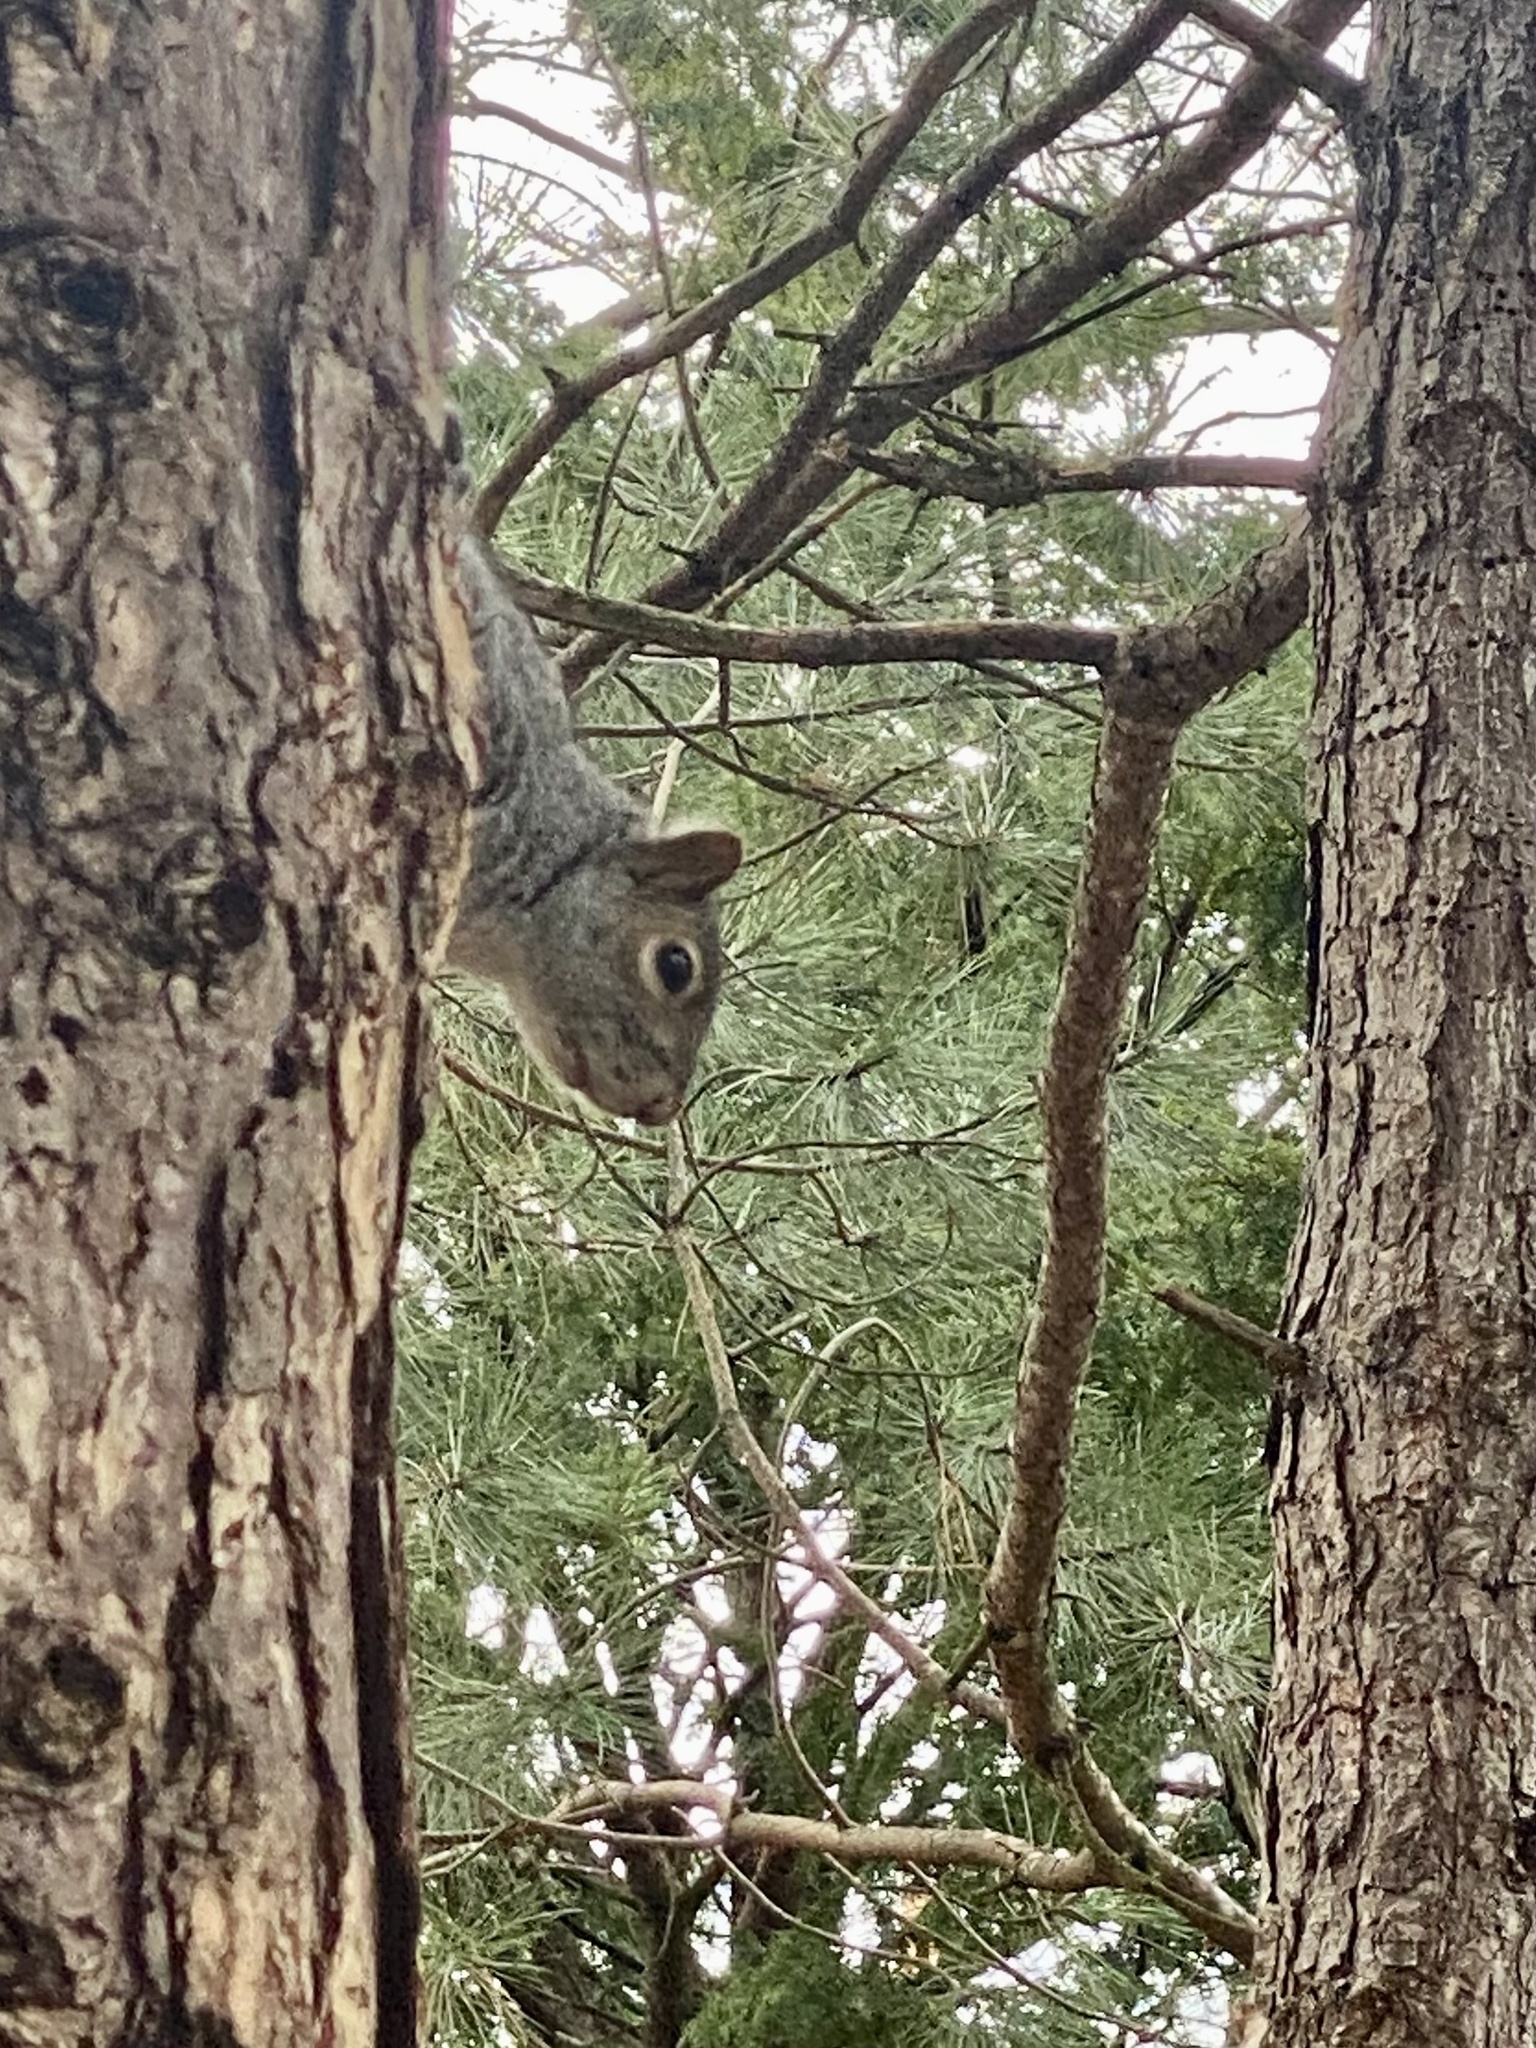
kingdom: Animalia
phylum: Chordata
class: Mammalia
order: Rodentia
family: Sciuridae
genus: Sciurus
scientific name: Sciurus carolinensis
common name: Eastern gray squirrel
